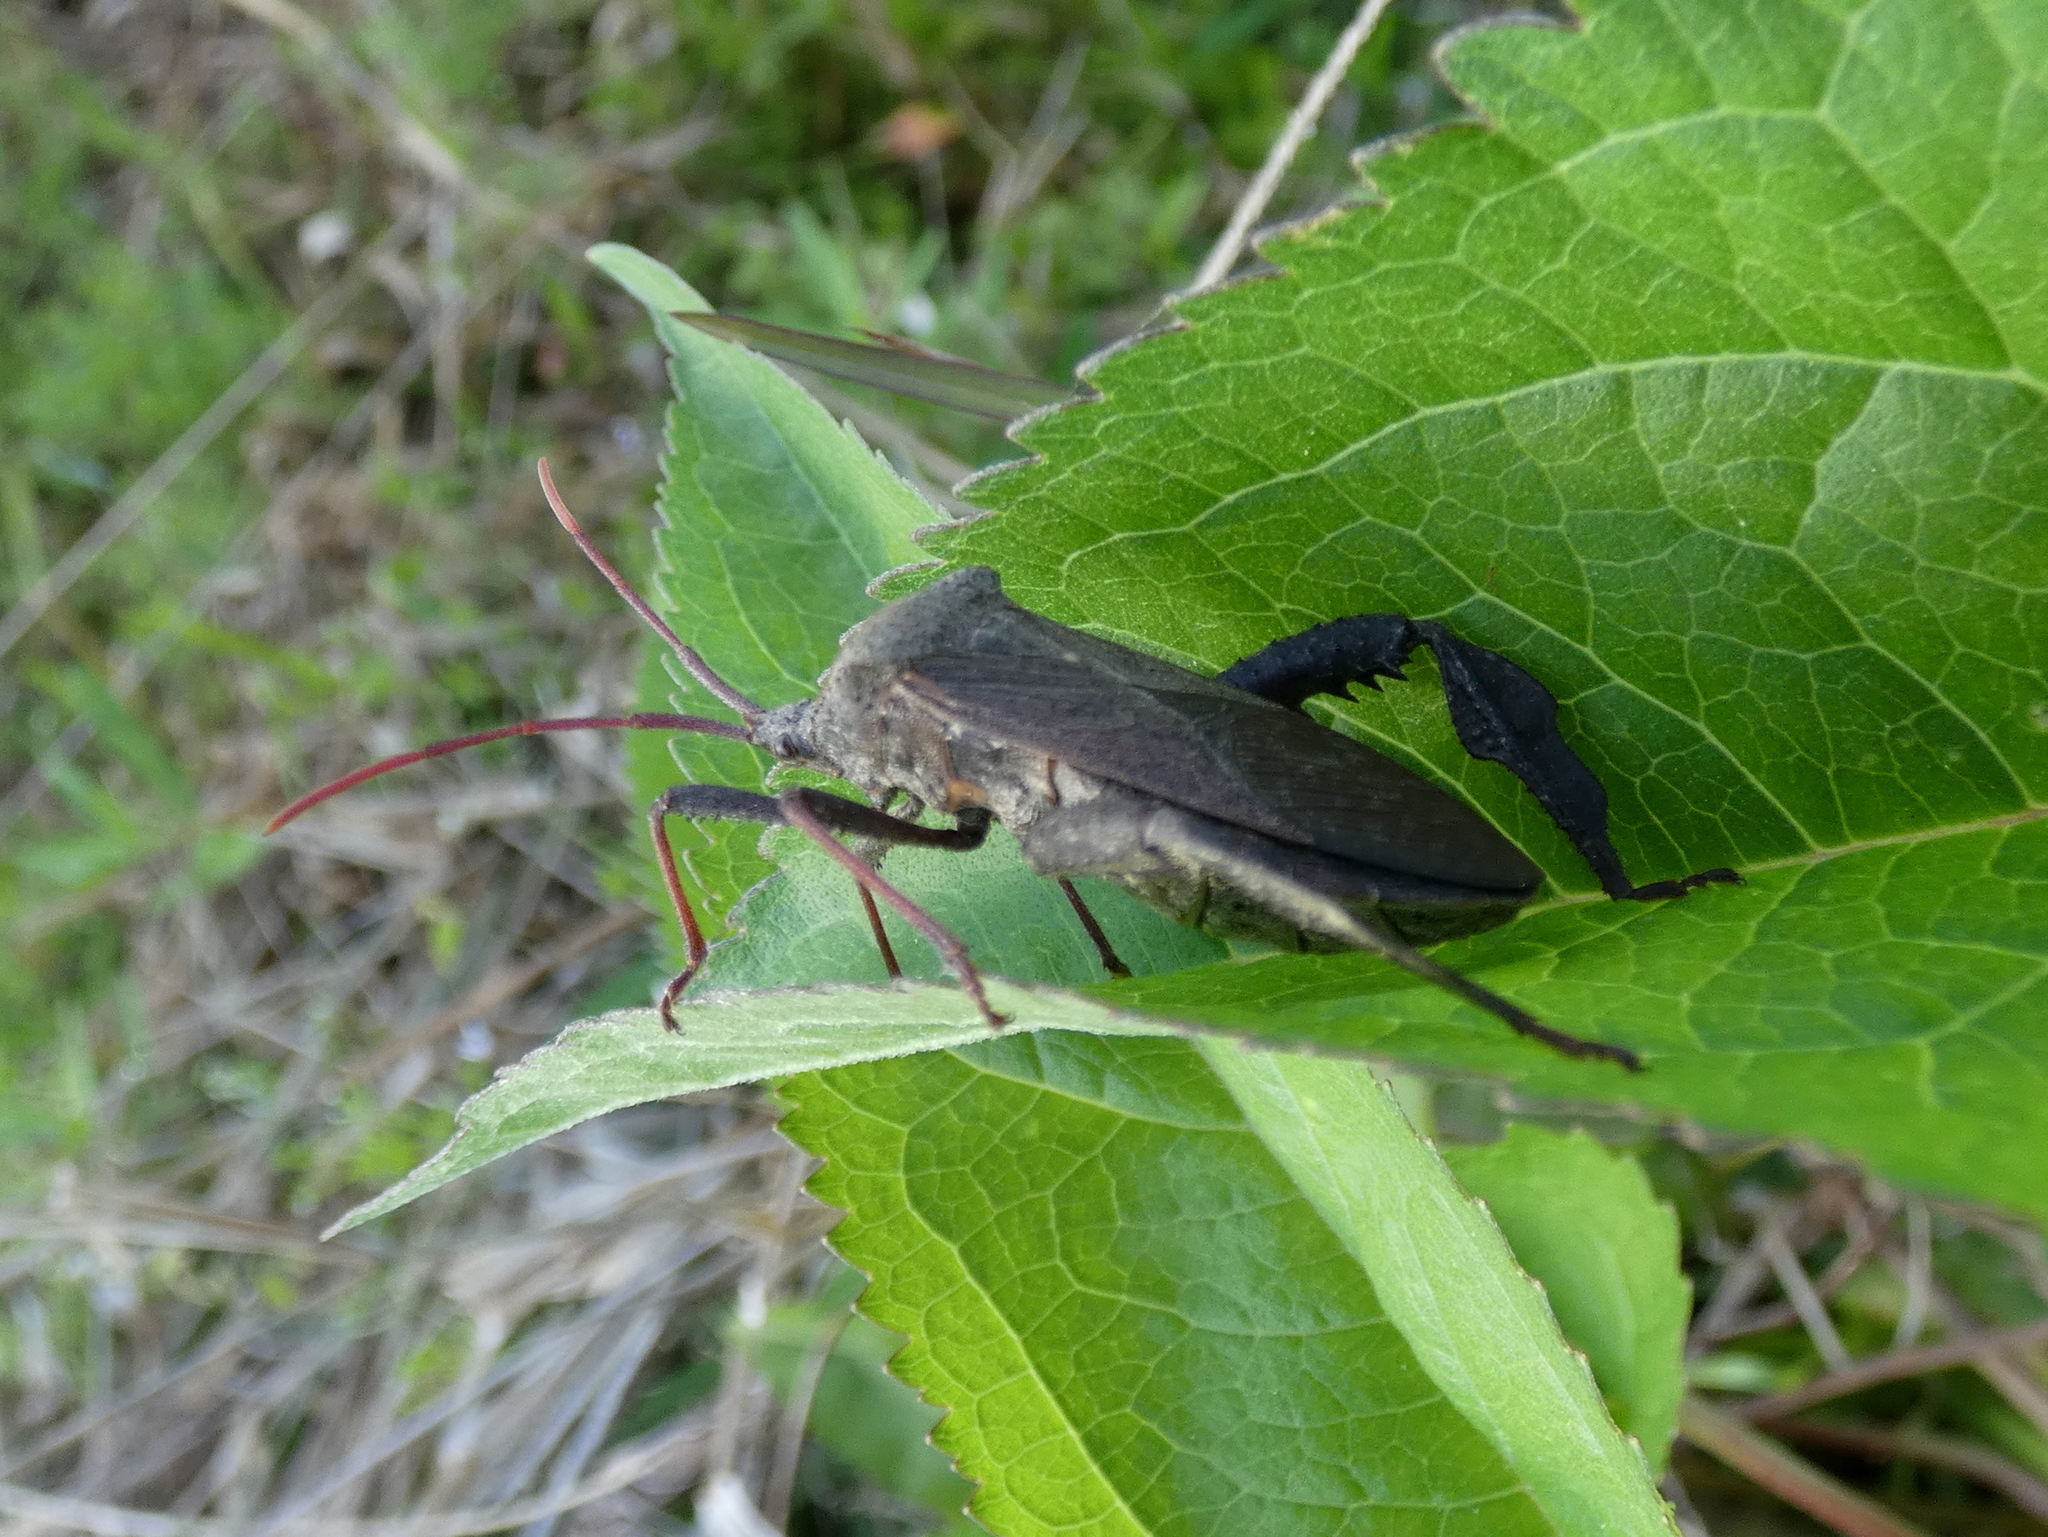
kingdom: Animalia
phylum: Arthropoda
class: Insecta
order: Hemiptera
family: Coreidae
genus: Acanthocephala
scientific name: Acanthocephala femorata
